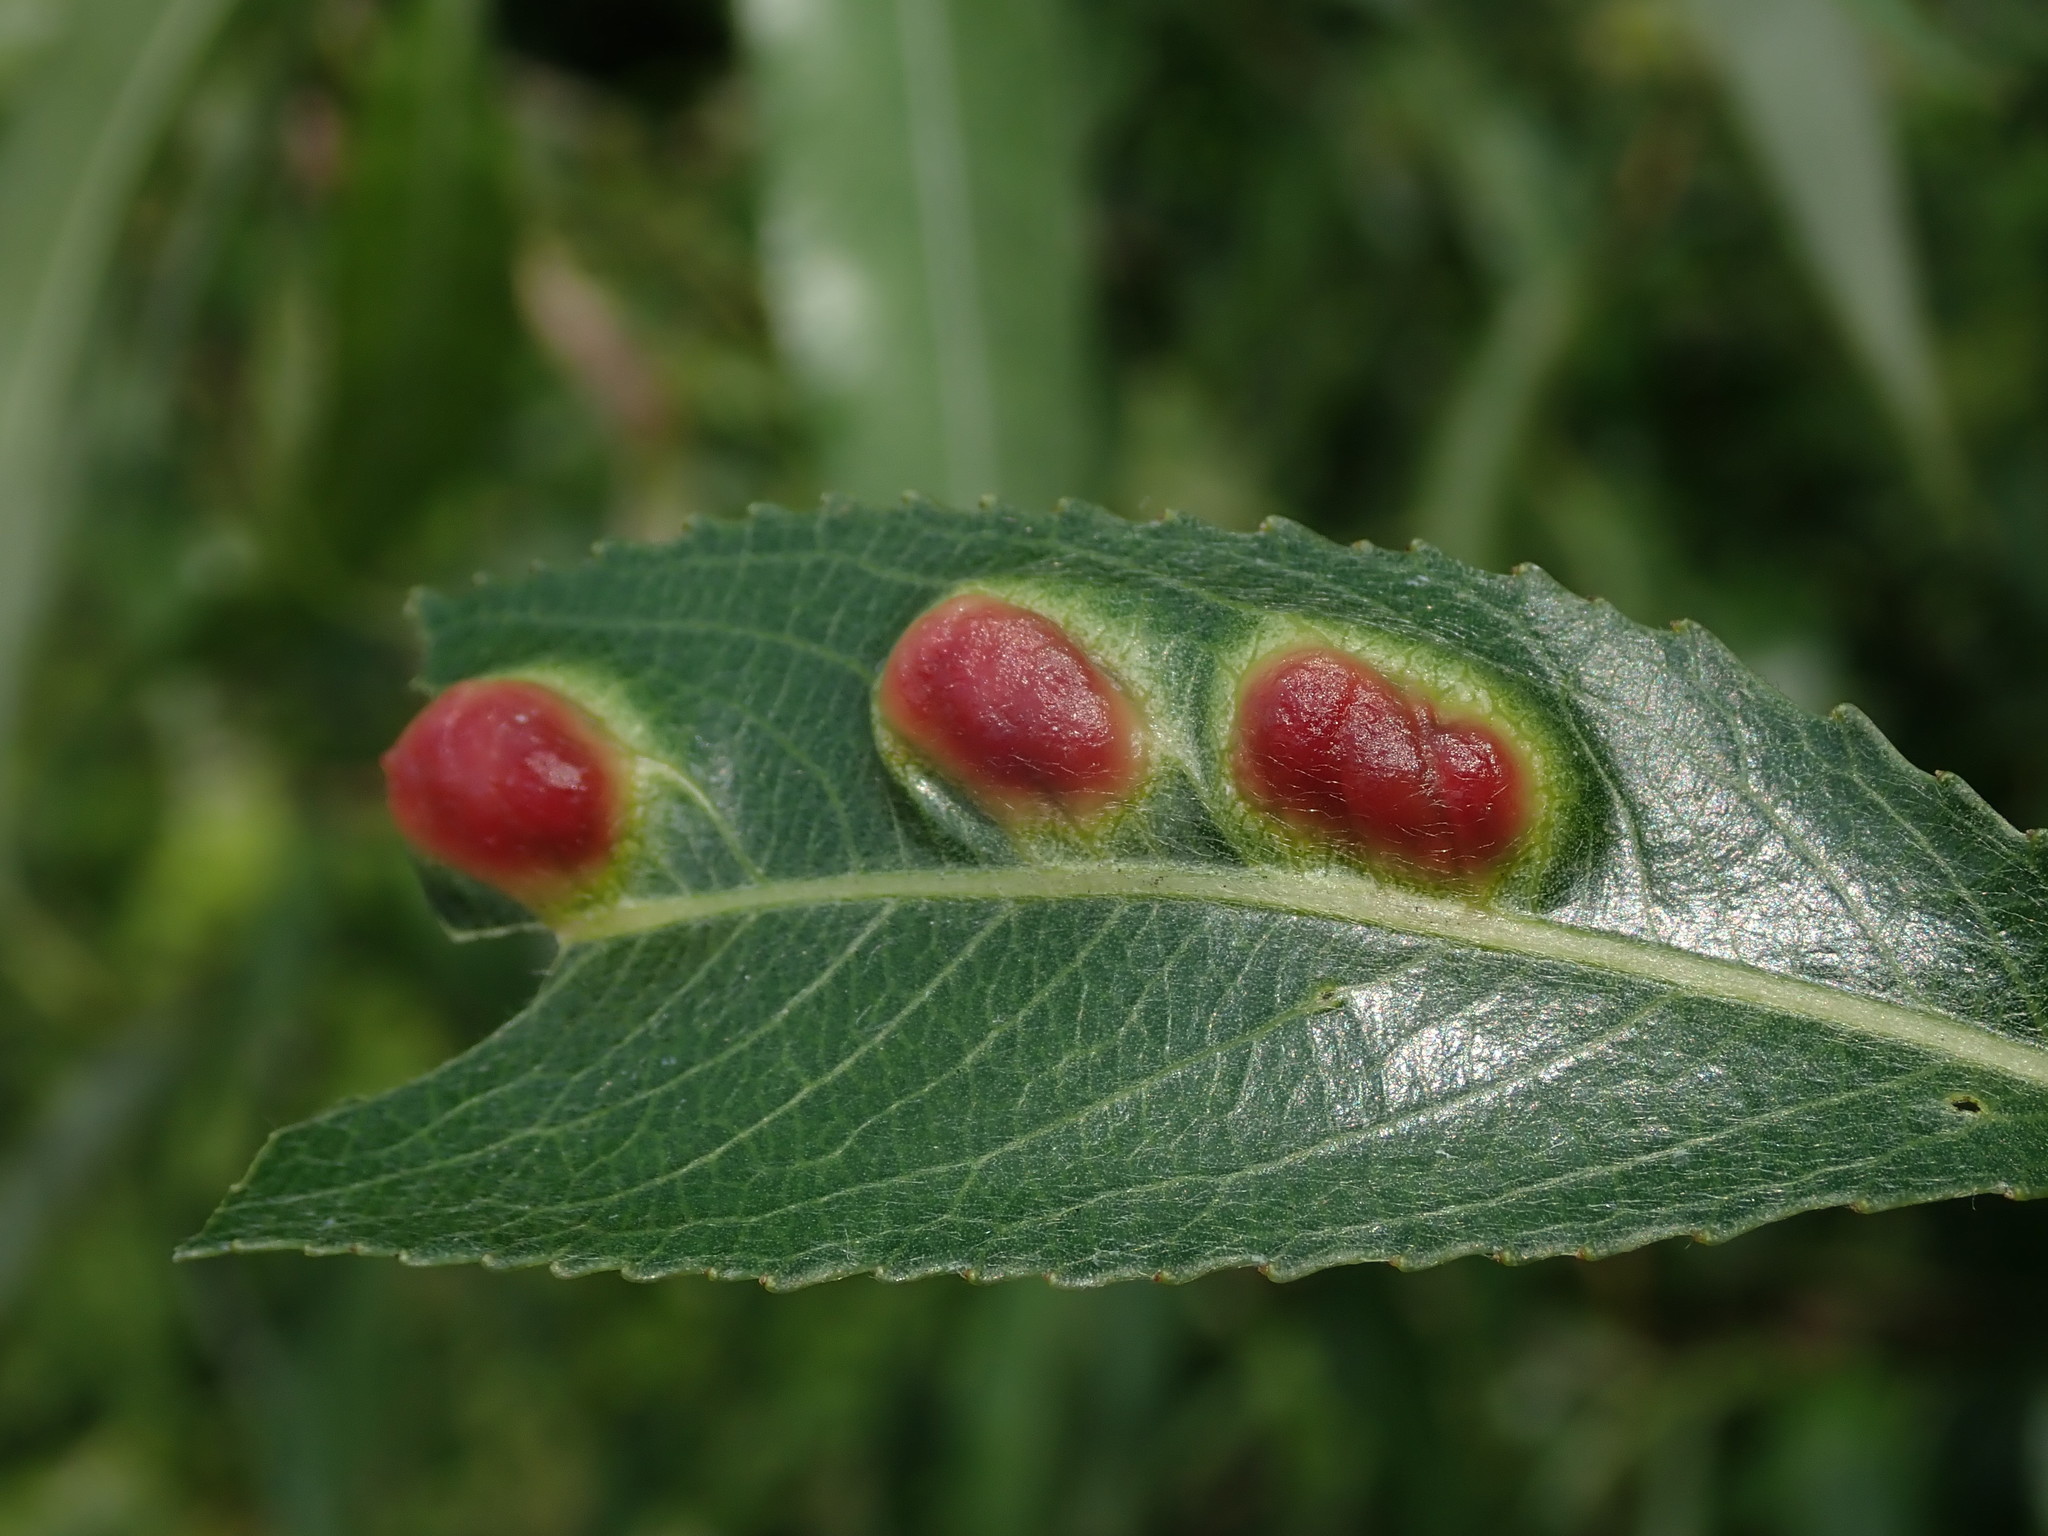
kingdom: Animalia
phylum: Arthropoda
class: Insecta
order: Hymenoptera
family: Tenthredinidae
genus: Pontania
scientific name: Pontania proxima
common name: Common sawfly
